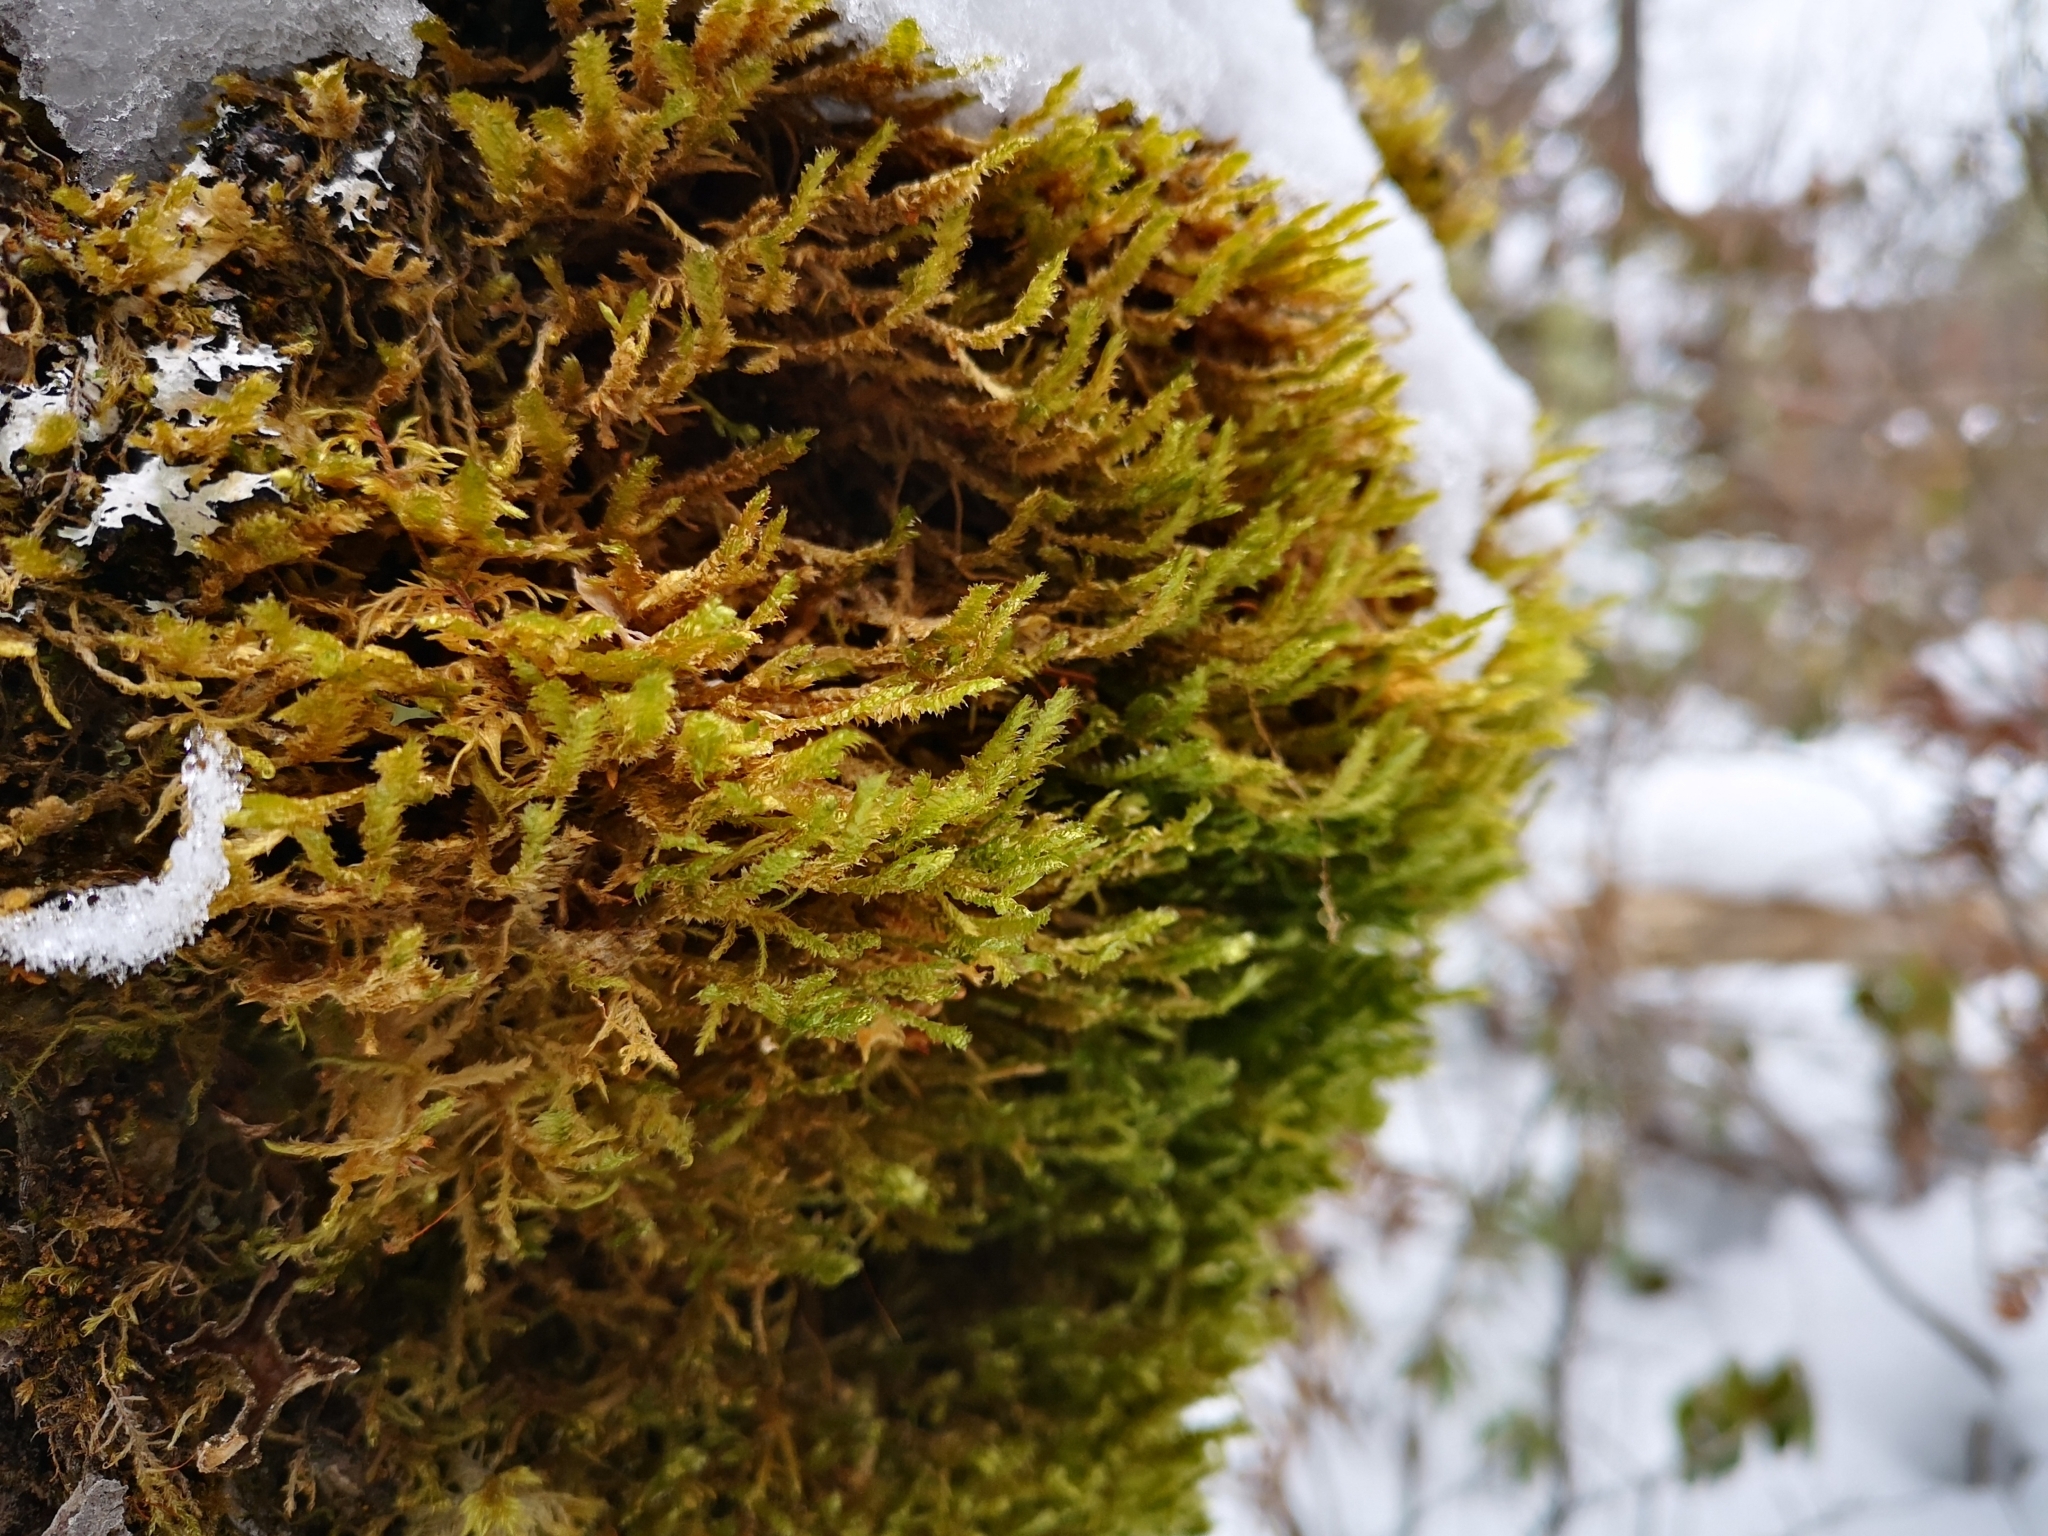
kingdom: Plantae
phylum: Bryophyta
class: Bryopsida
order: Hypnales
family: Neckeraceae
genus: Neckera
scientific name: Neckera pennata
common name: Feathery neckera
